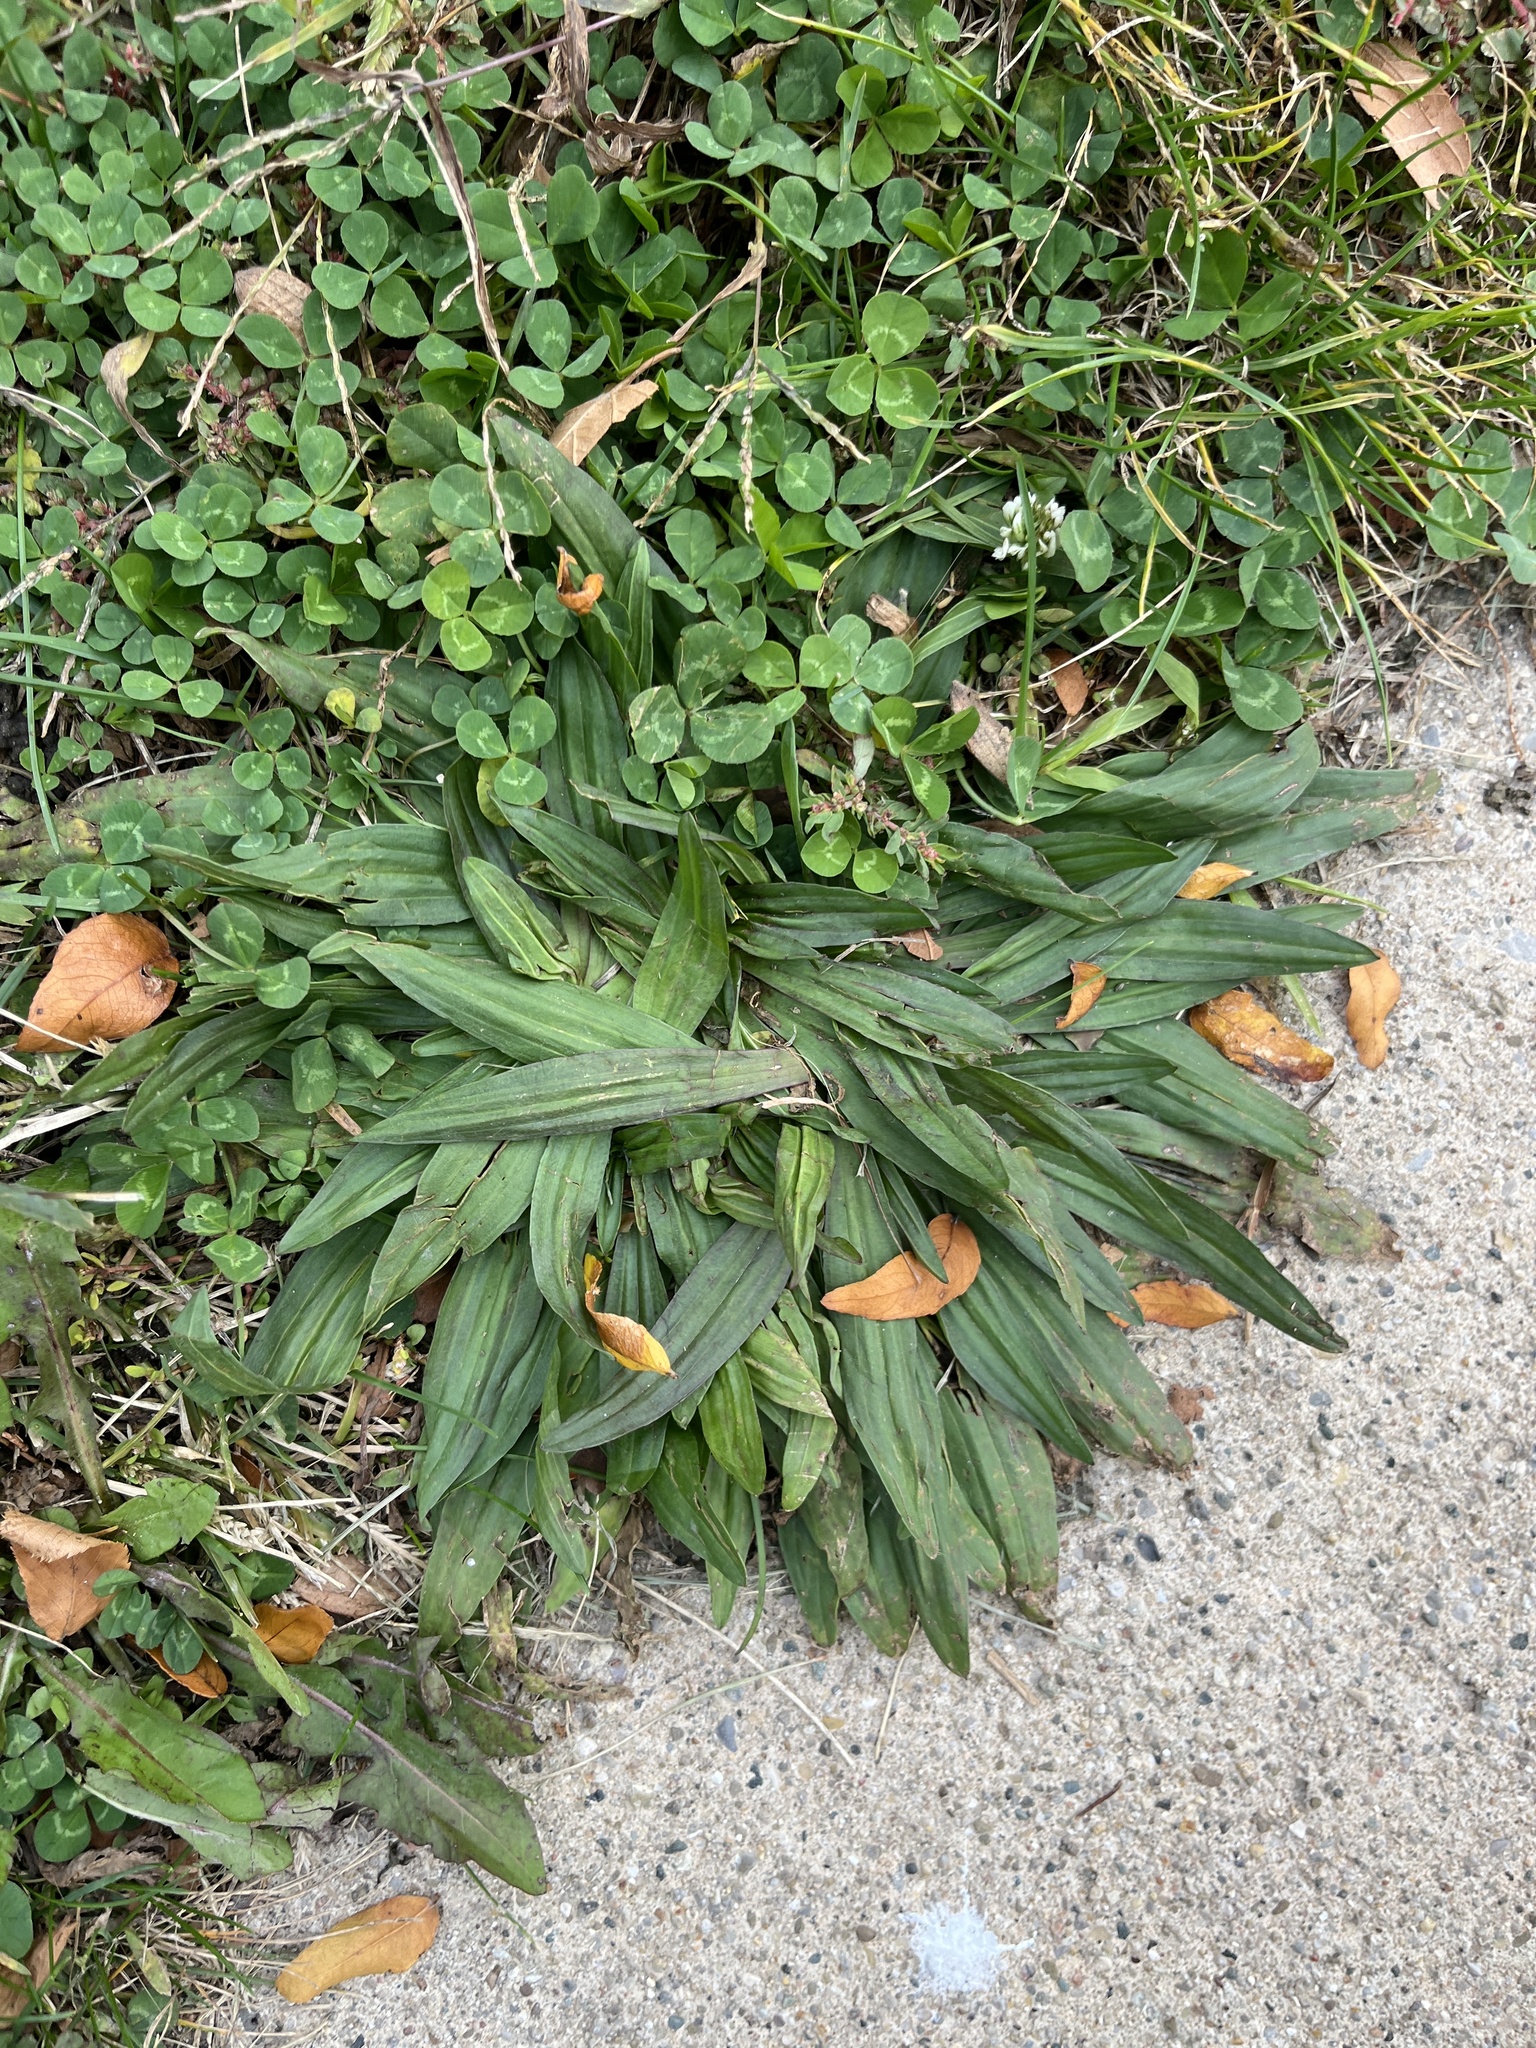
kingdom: Plantae
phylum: Tracheophyta
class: Magnoliopsida
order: Lamiales
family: Plantaginaceae
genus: Plantago
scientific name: Plantago lanceolata
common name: Ribwort plantain
